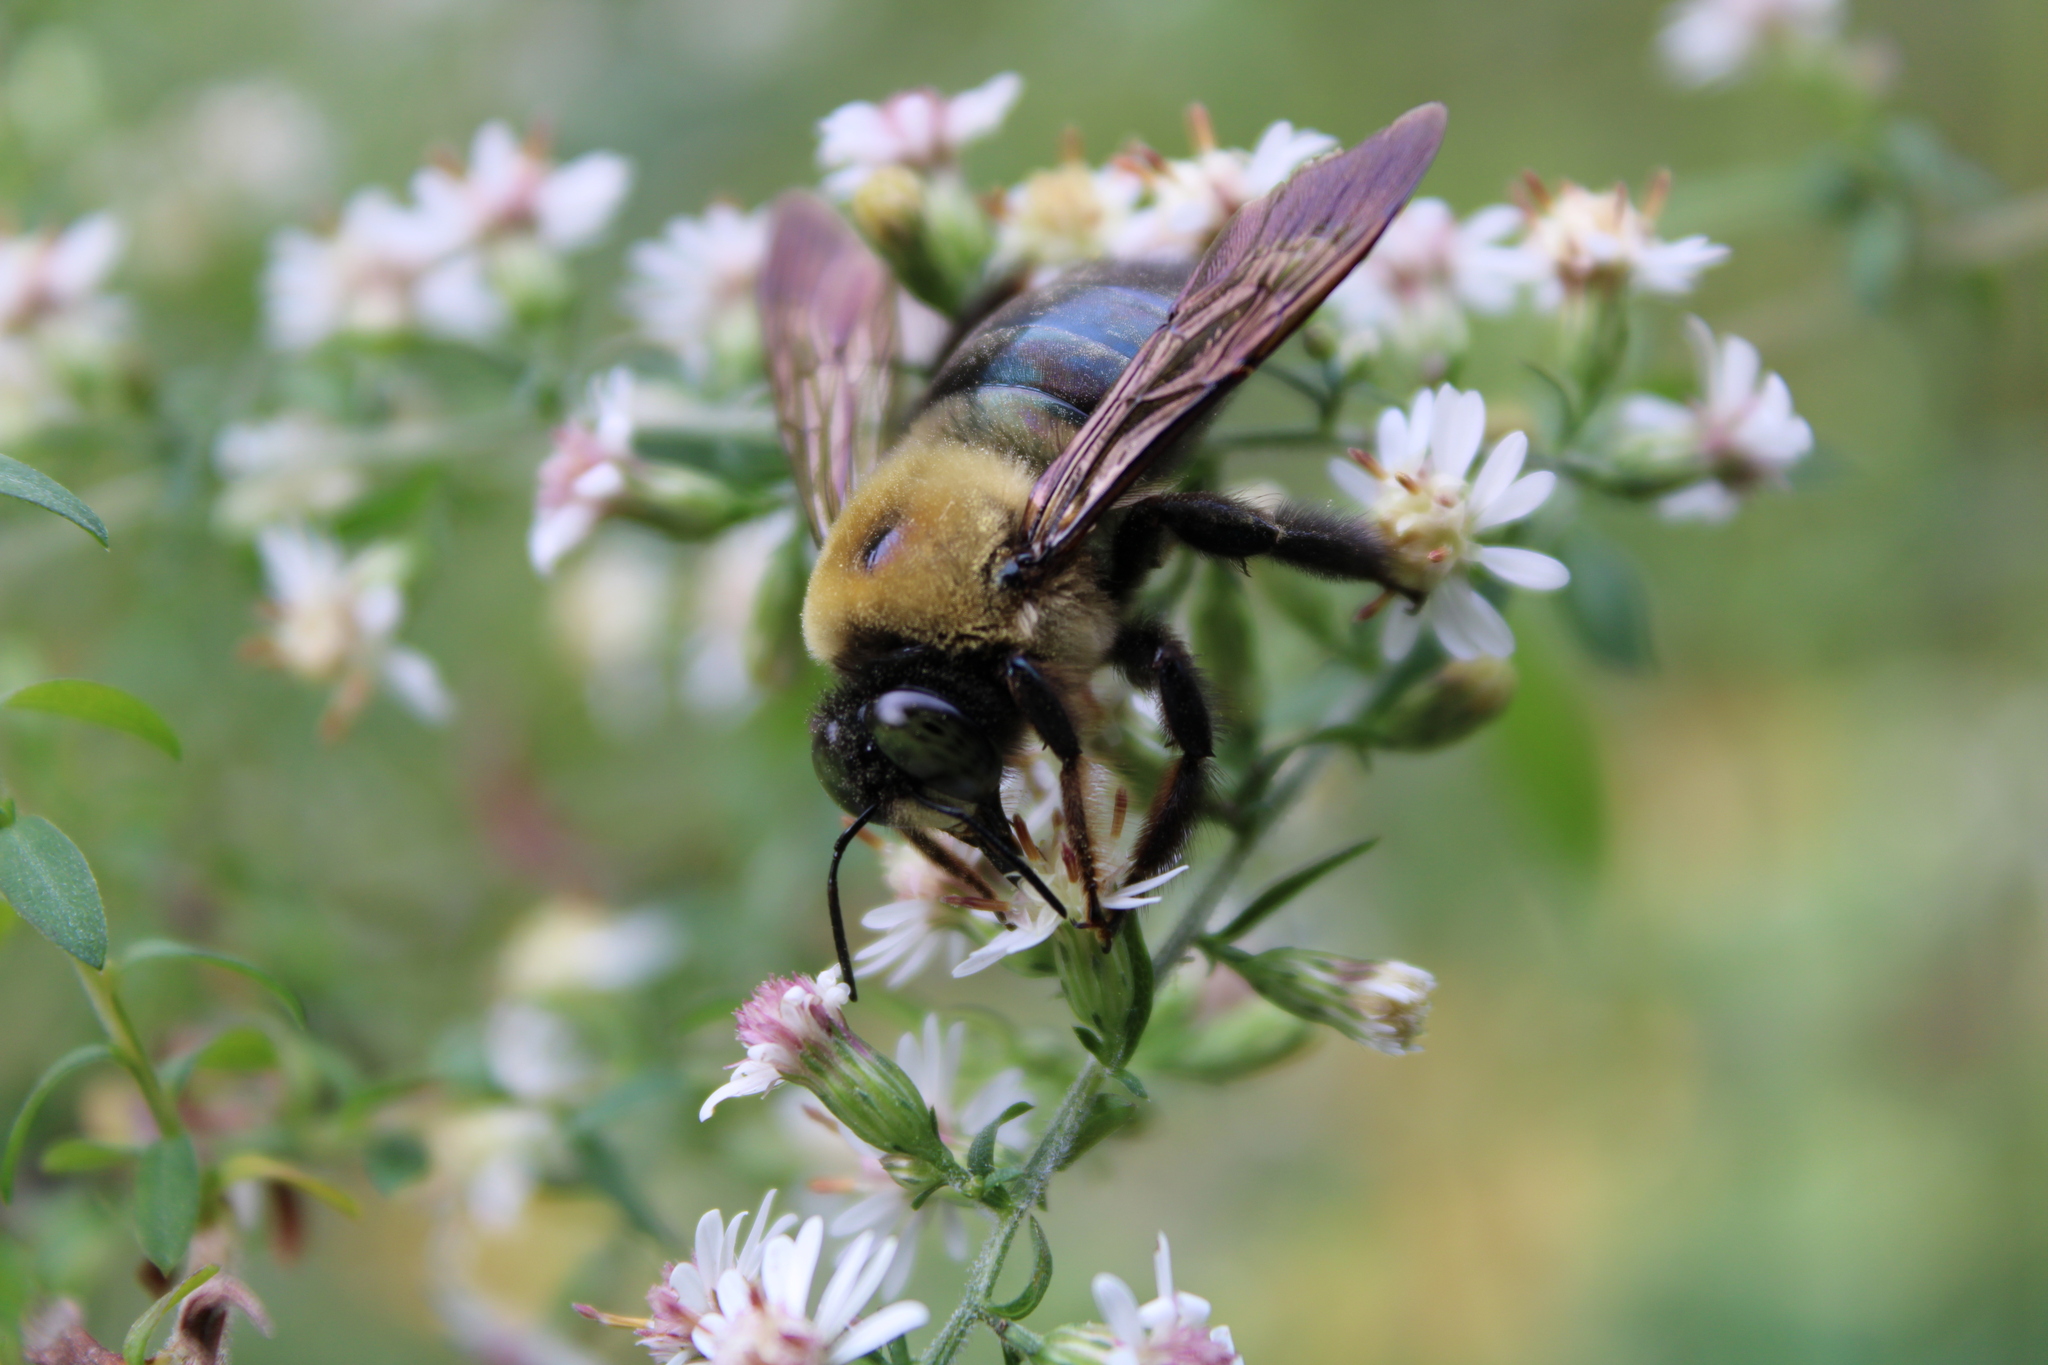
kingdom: Animalia
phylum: Arthropoda
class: Insecta
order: Hymenoptera
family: Apidae
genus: Xylocopa
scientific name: Xylocopa virginica
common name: Carpenter bee
